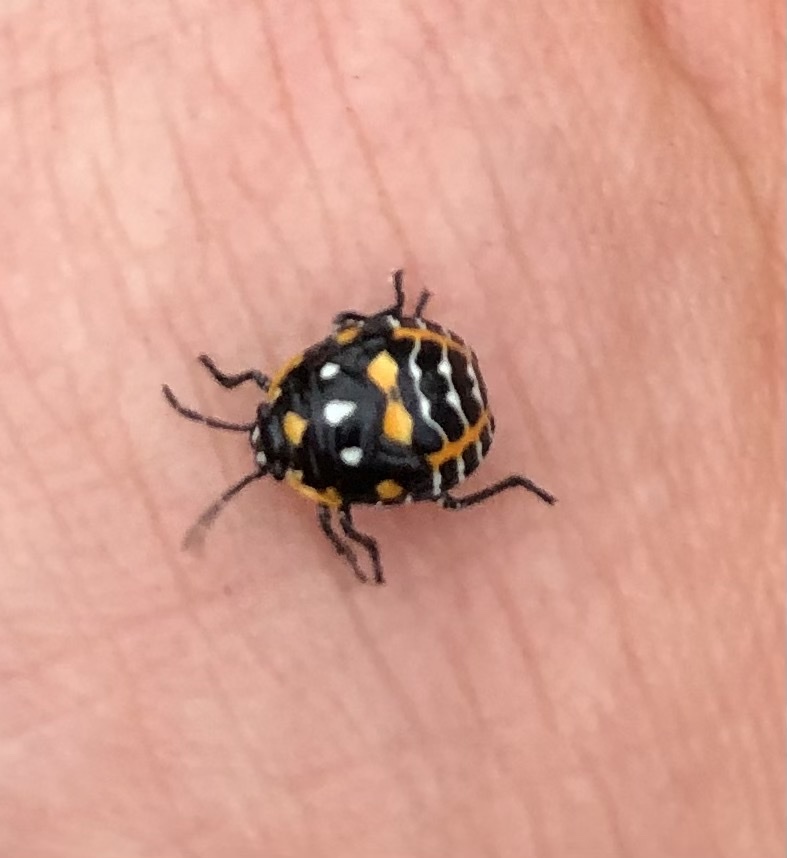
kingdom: Animalia
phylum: Arthropoda
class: Insecta
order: Hemiptera
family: Pentatomidae
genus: Murgantia
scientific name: Murgantia histrionica
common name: Harlequin bug
